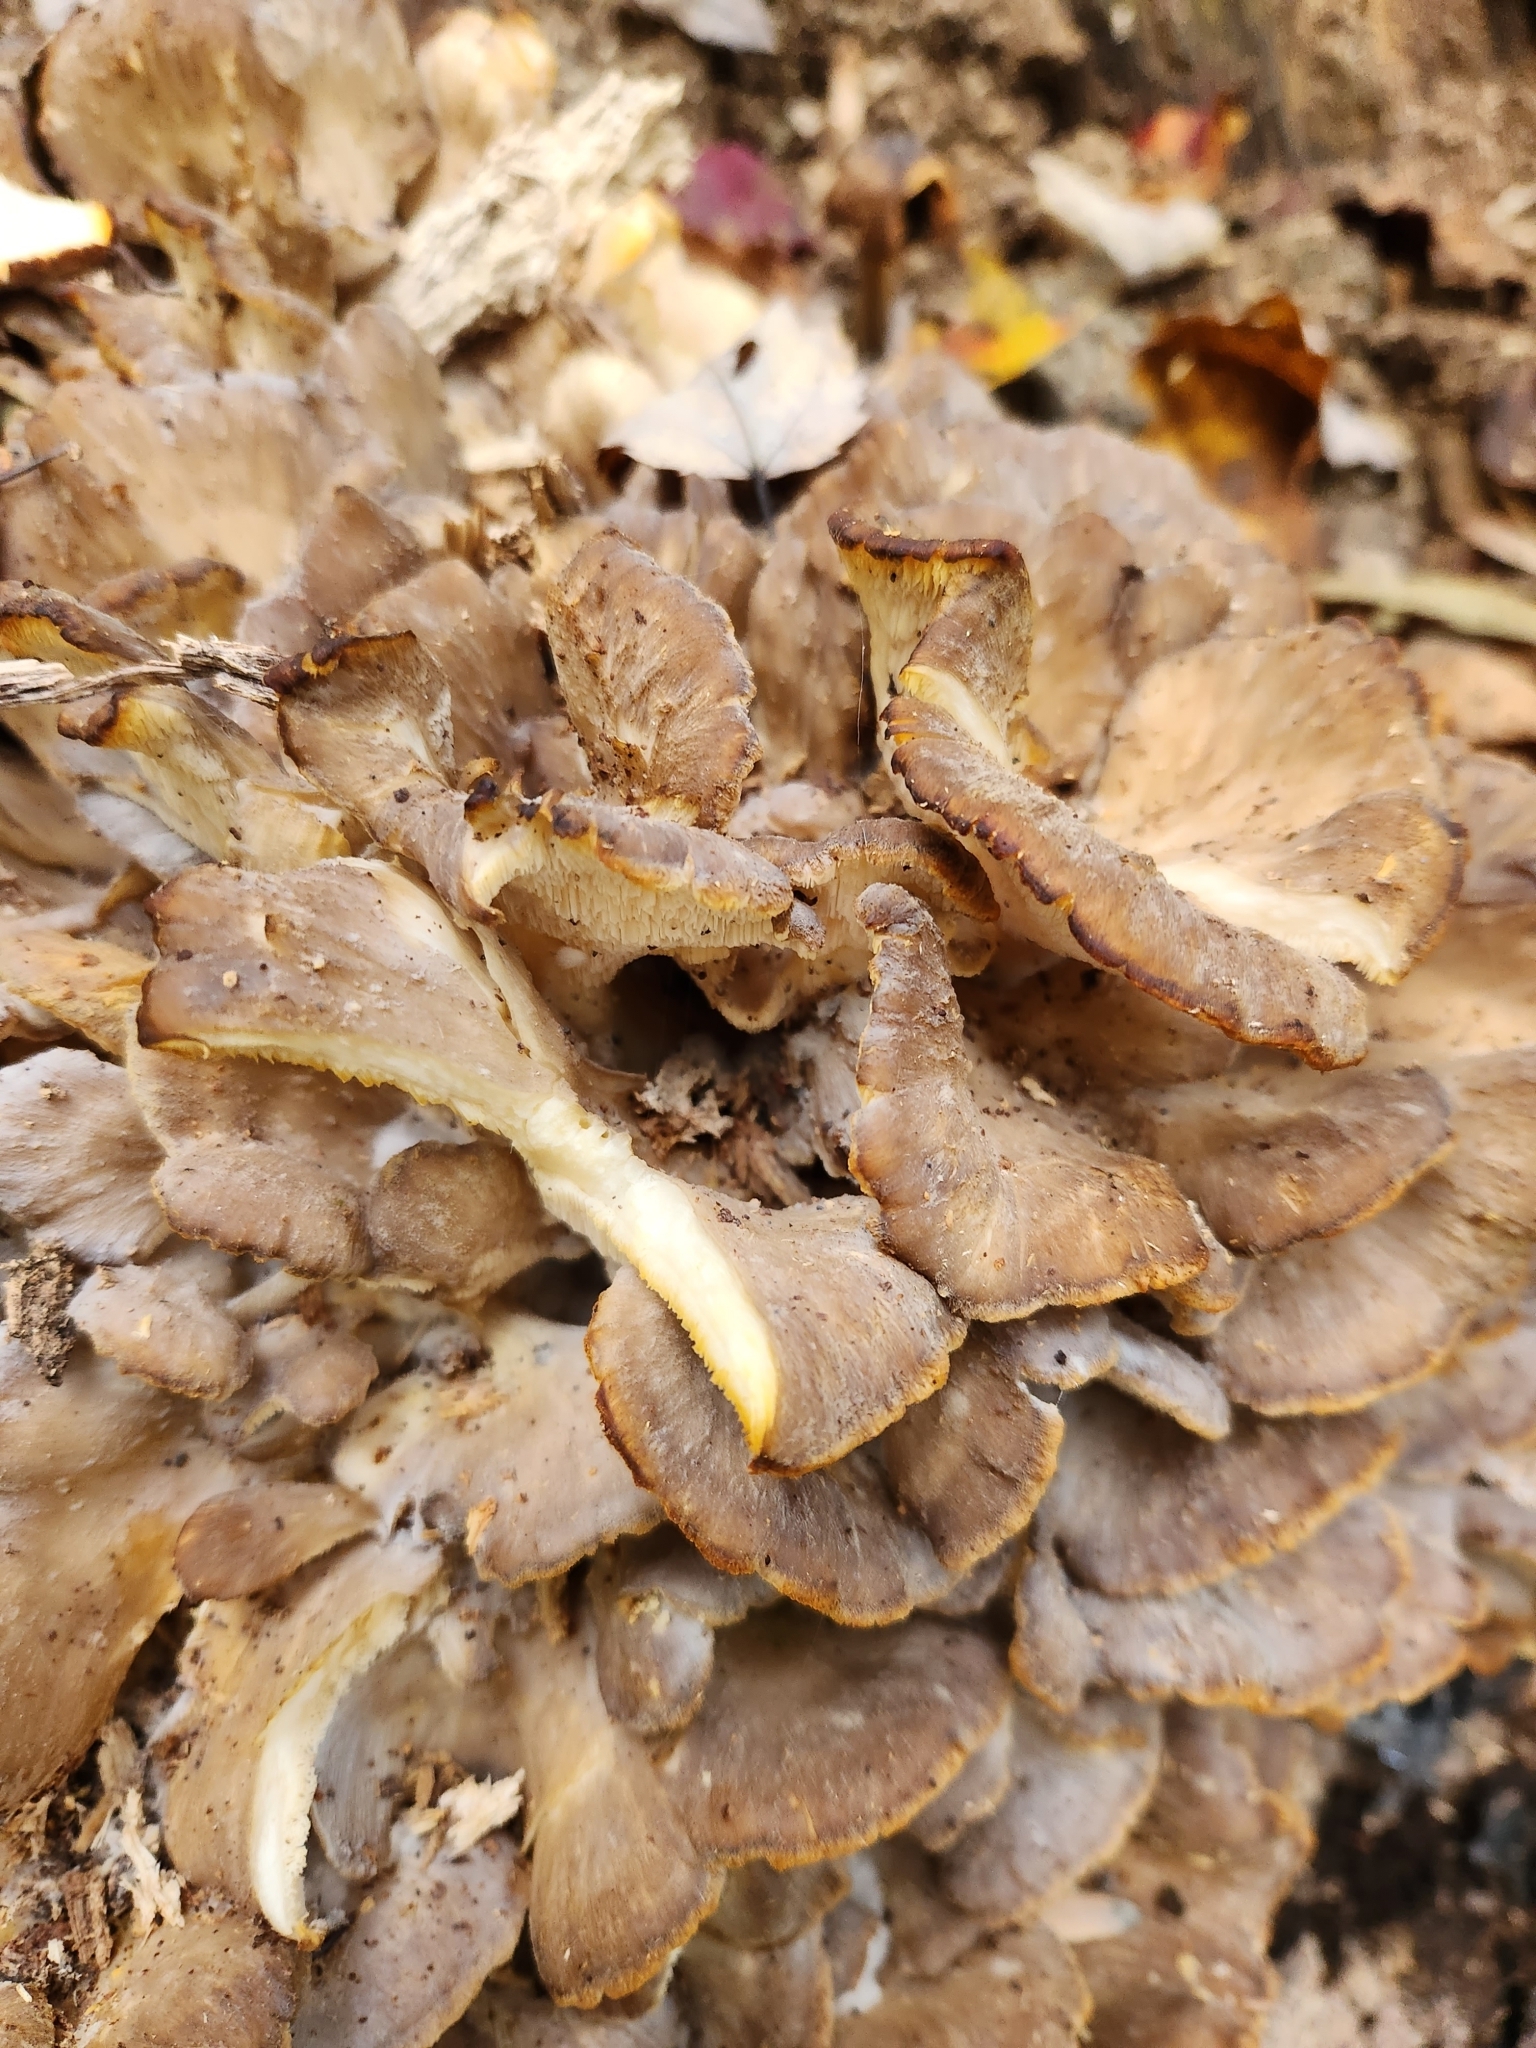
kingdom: Fungi
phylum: Basidiomycota
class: Agaricomycetes
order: Polyporales
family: Grifolaceae
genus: Grifola
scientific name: Grifola frondosa
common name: Hen of the woods
